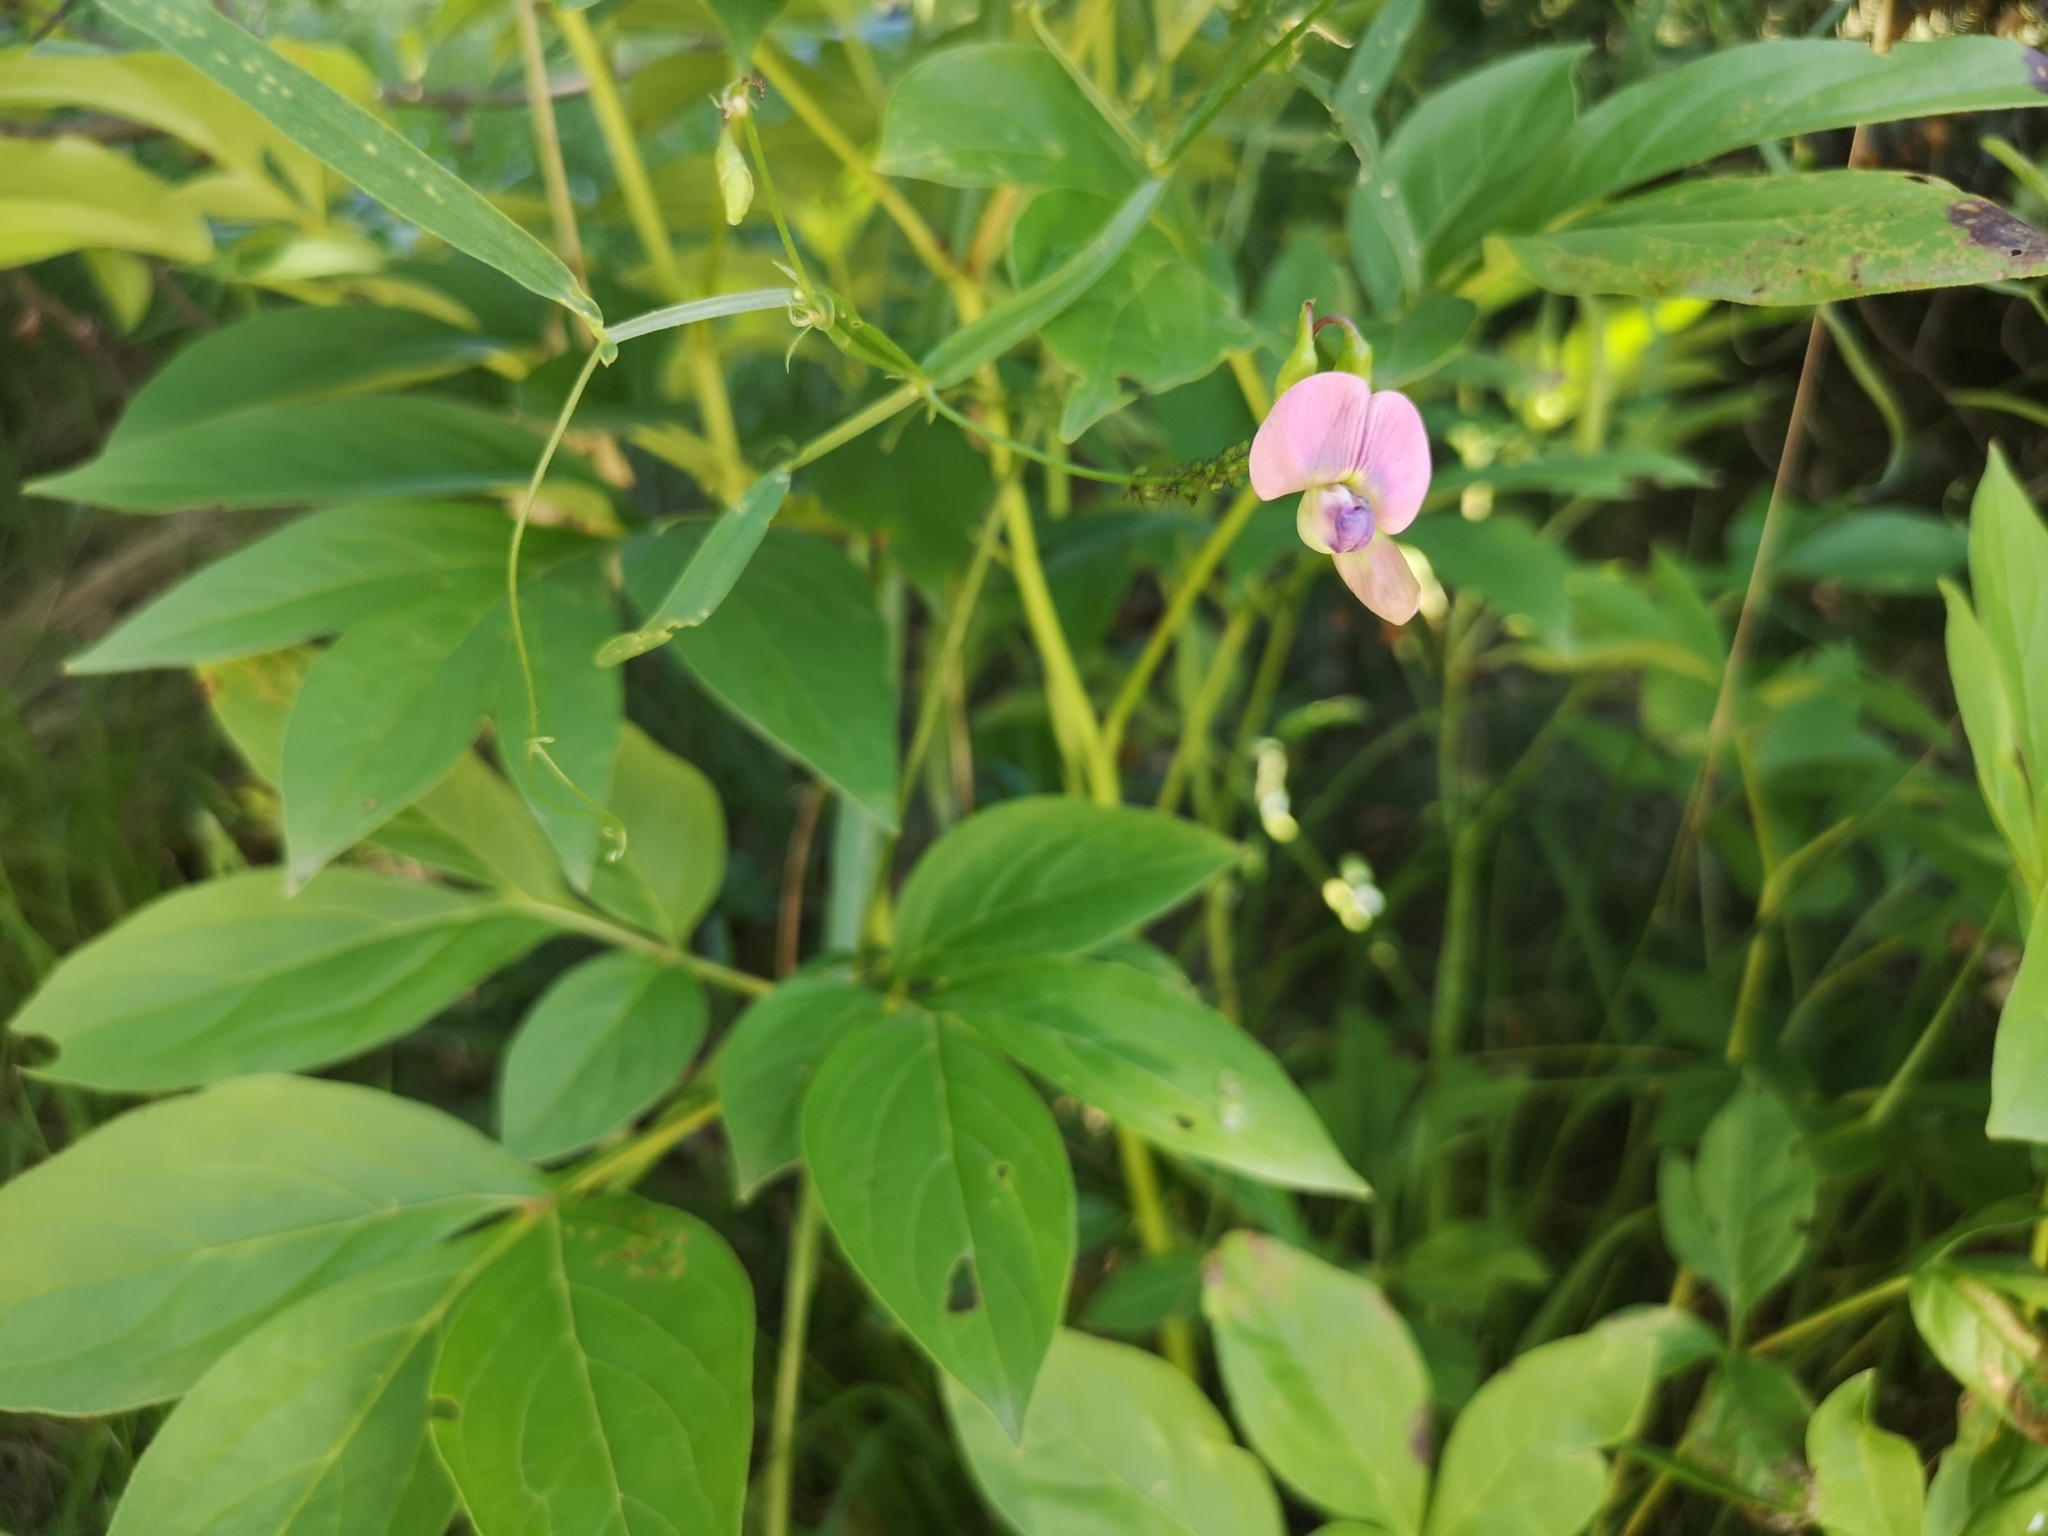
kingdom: Plantae
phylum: Tracheophyta
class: Magnoliopsida
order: Fabales
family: Fabaceae
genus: Lathyrus
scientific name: Lathyrus sylvestris
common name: Flat pea
